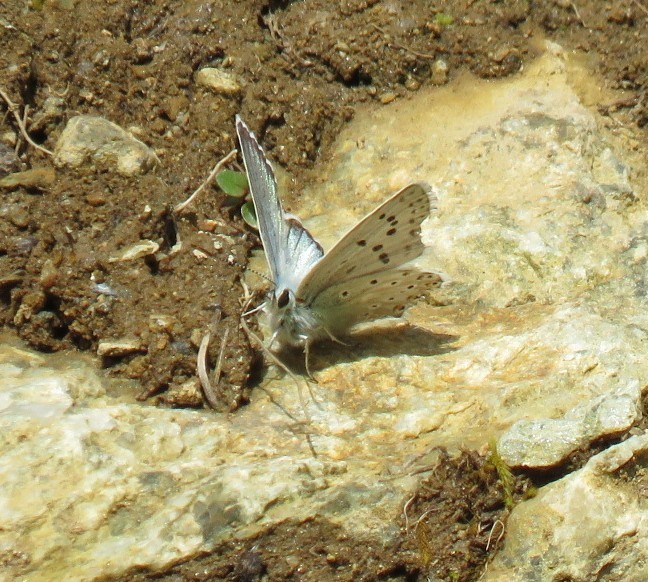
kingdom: Animalia
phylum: Arthropoda
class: Insecta
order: Lepidoptera
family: Lycaenidae
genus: Lysandra
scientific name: Lysandra coridon
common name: Chalkhill blue
